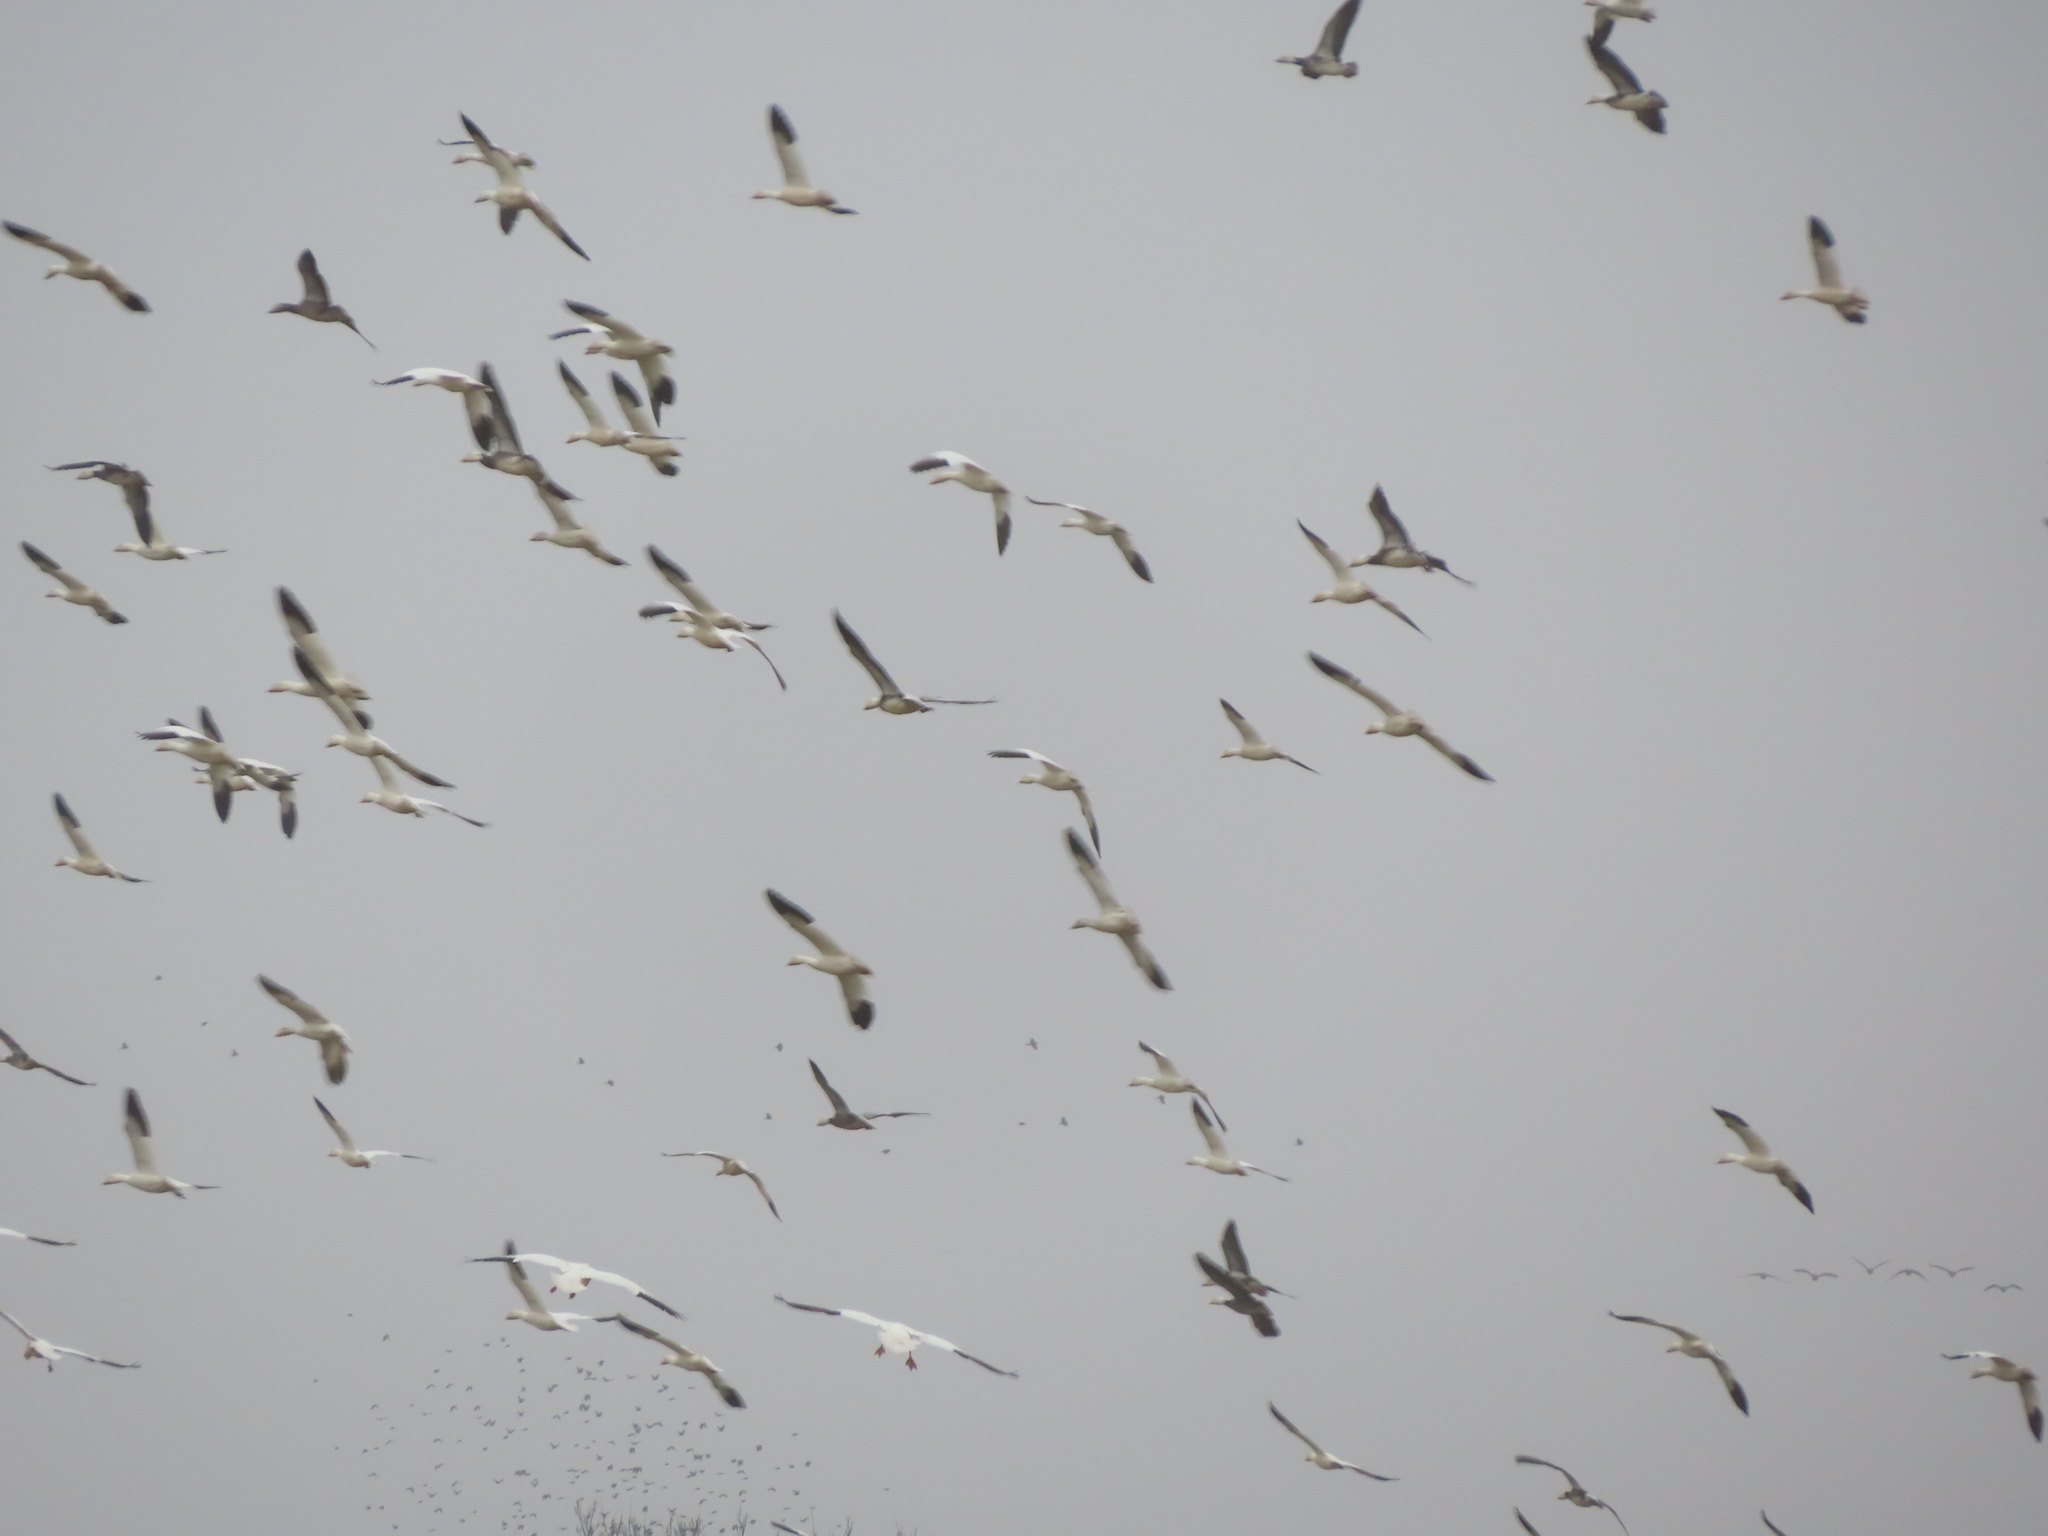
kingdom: Animalia
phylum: Chordata
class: Aves
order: Anseriformes
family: Anatidae
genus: Anser
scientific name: Anser caerulescens
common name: Snow goose
